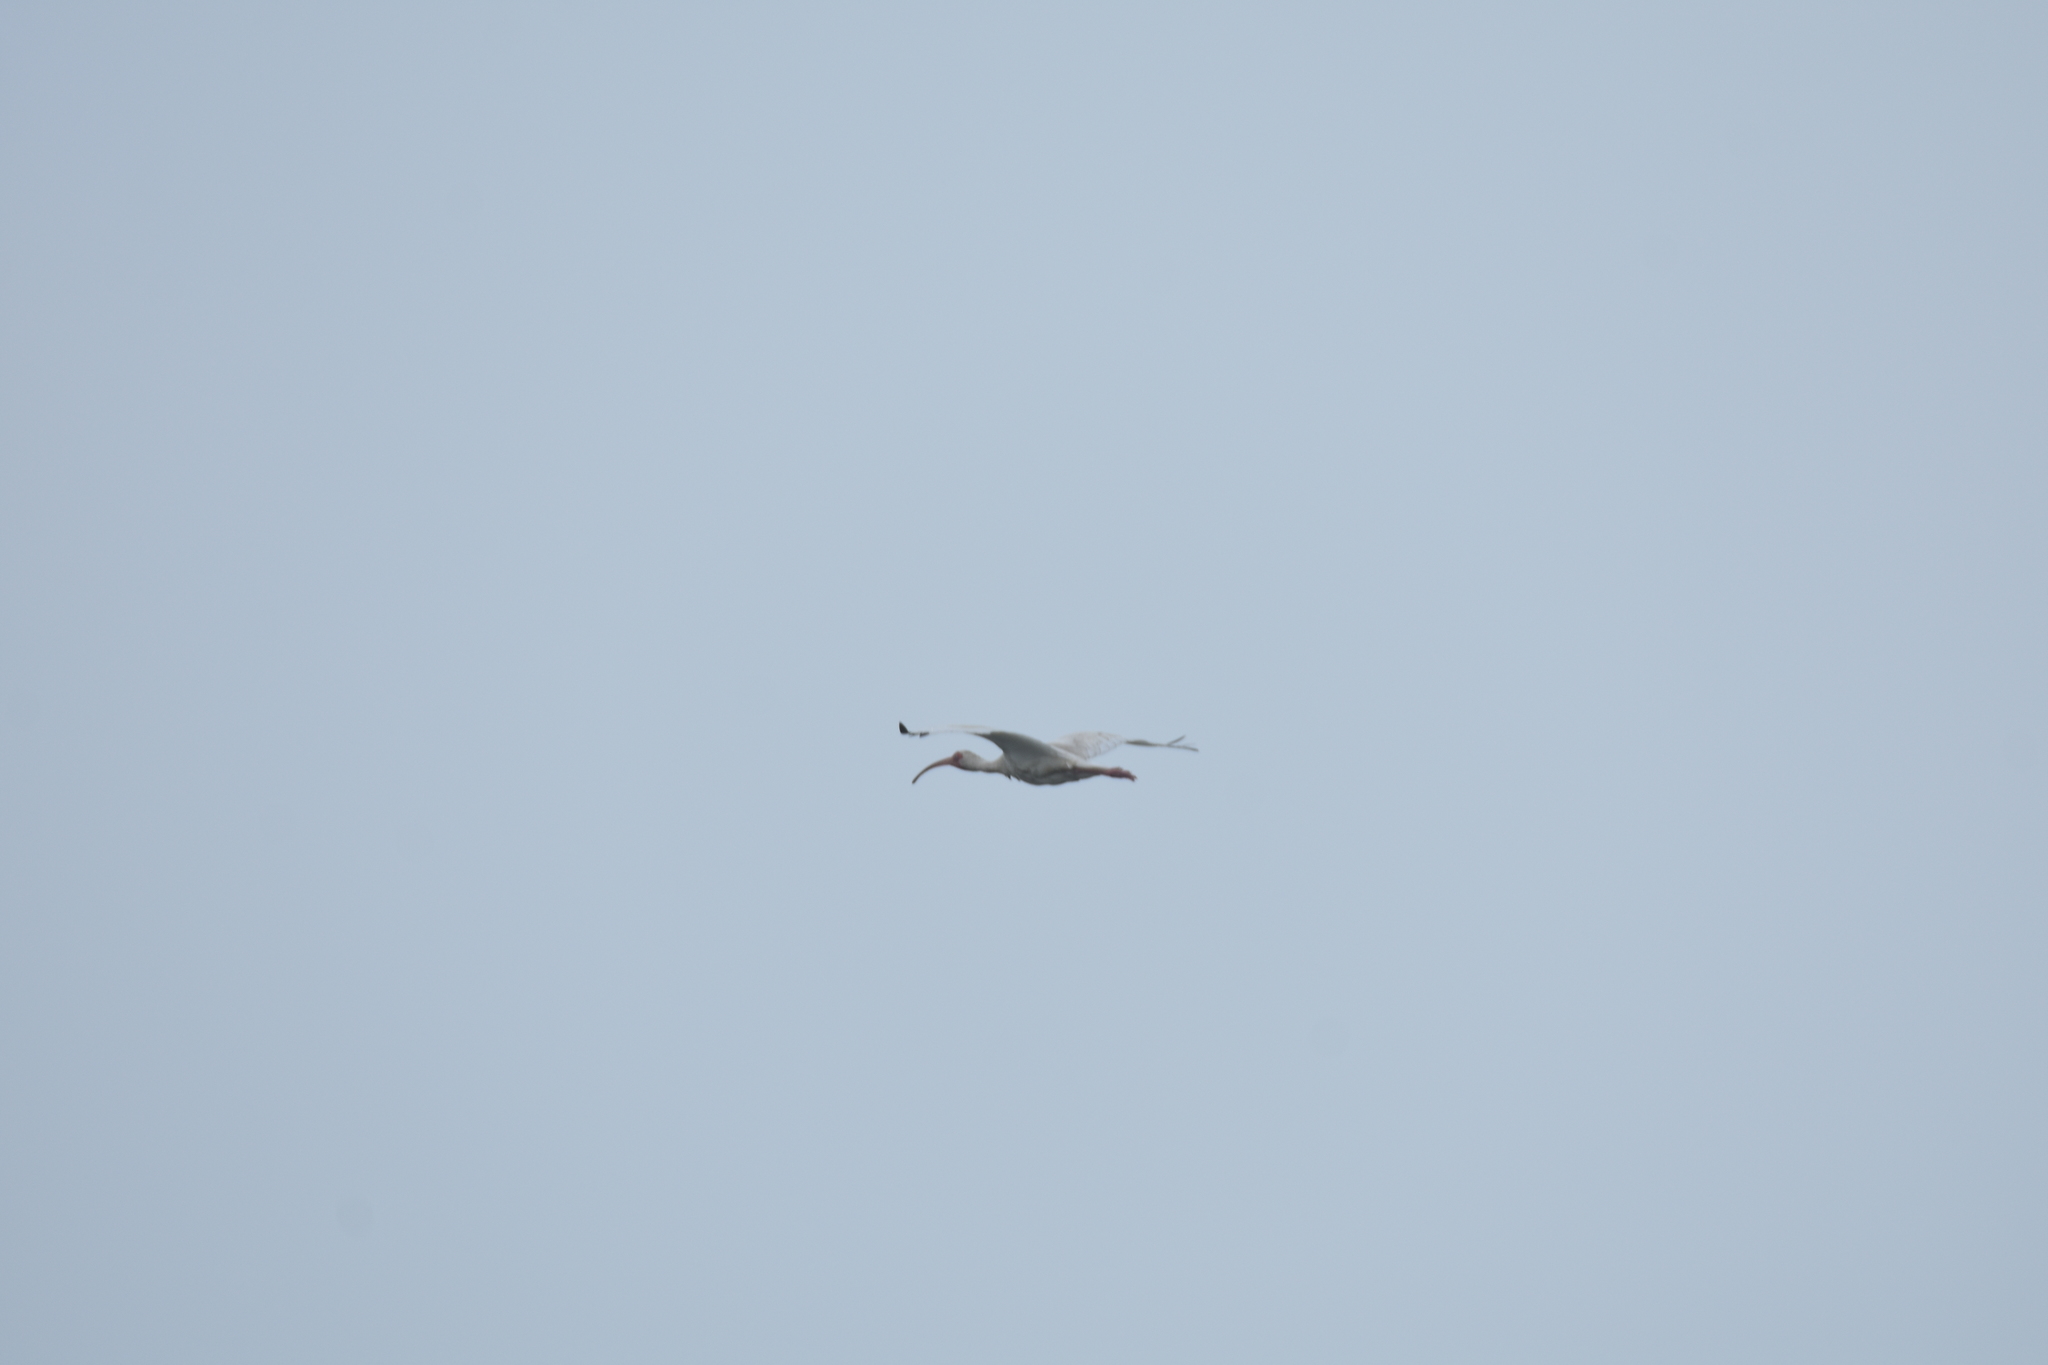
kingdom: Animalia
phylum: Chordata
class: Aves
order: Pelecaniformes
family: Threskiornithidae
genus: Eudocimus
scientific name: Eudocimus albus
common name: White ibis
